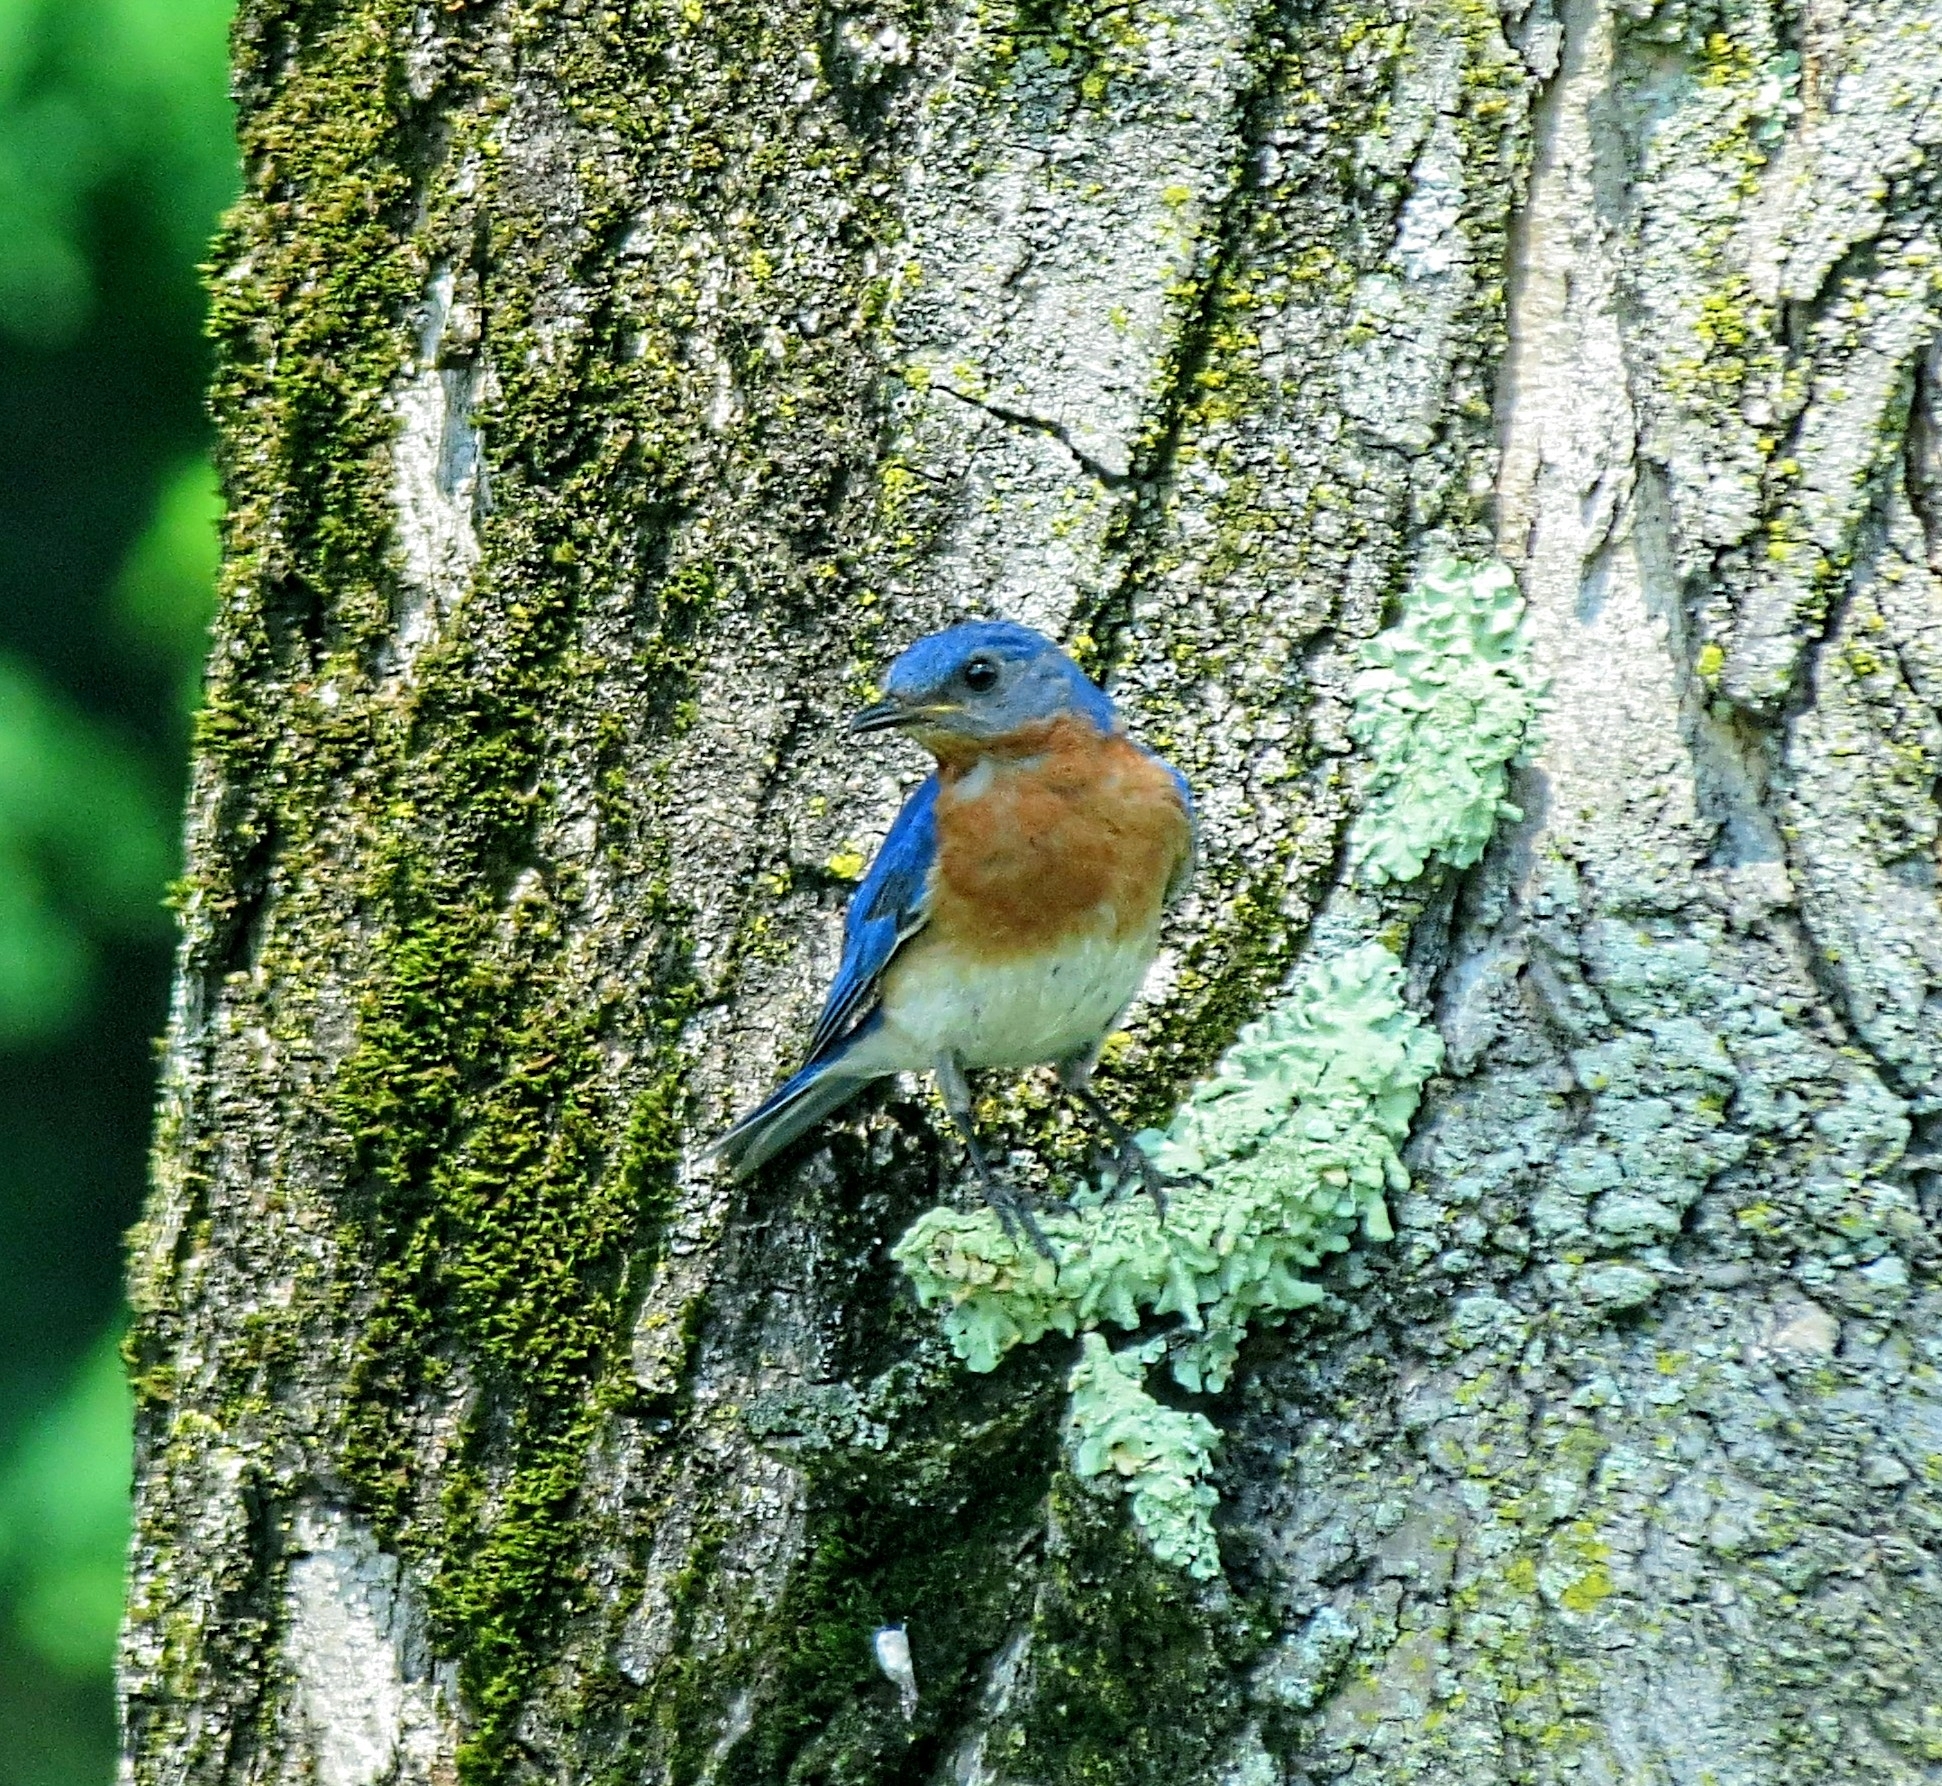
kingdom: Animalia
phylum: Chordata
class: Aves
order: Passeriformes
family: Turdidae
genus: Sialia
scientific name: Sialia sialis
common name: Eastern bluebird
